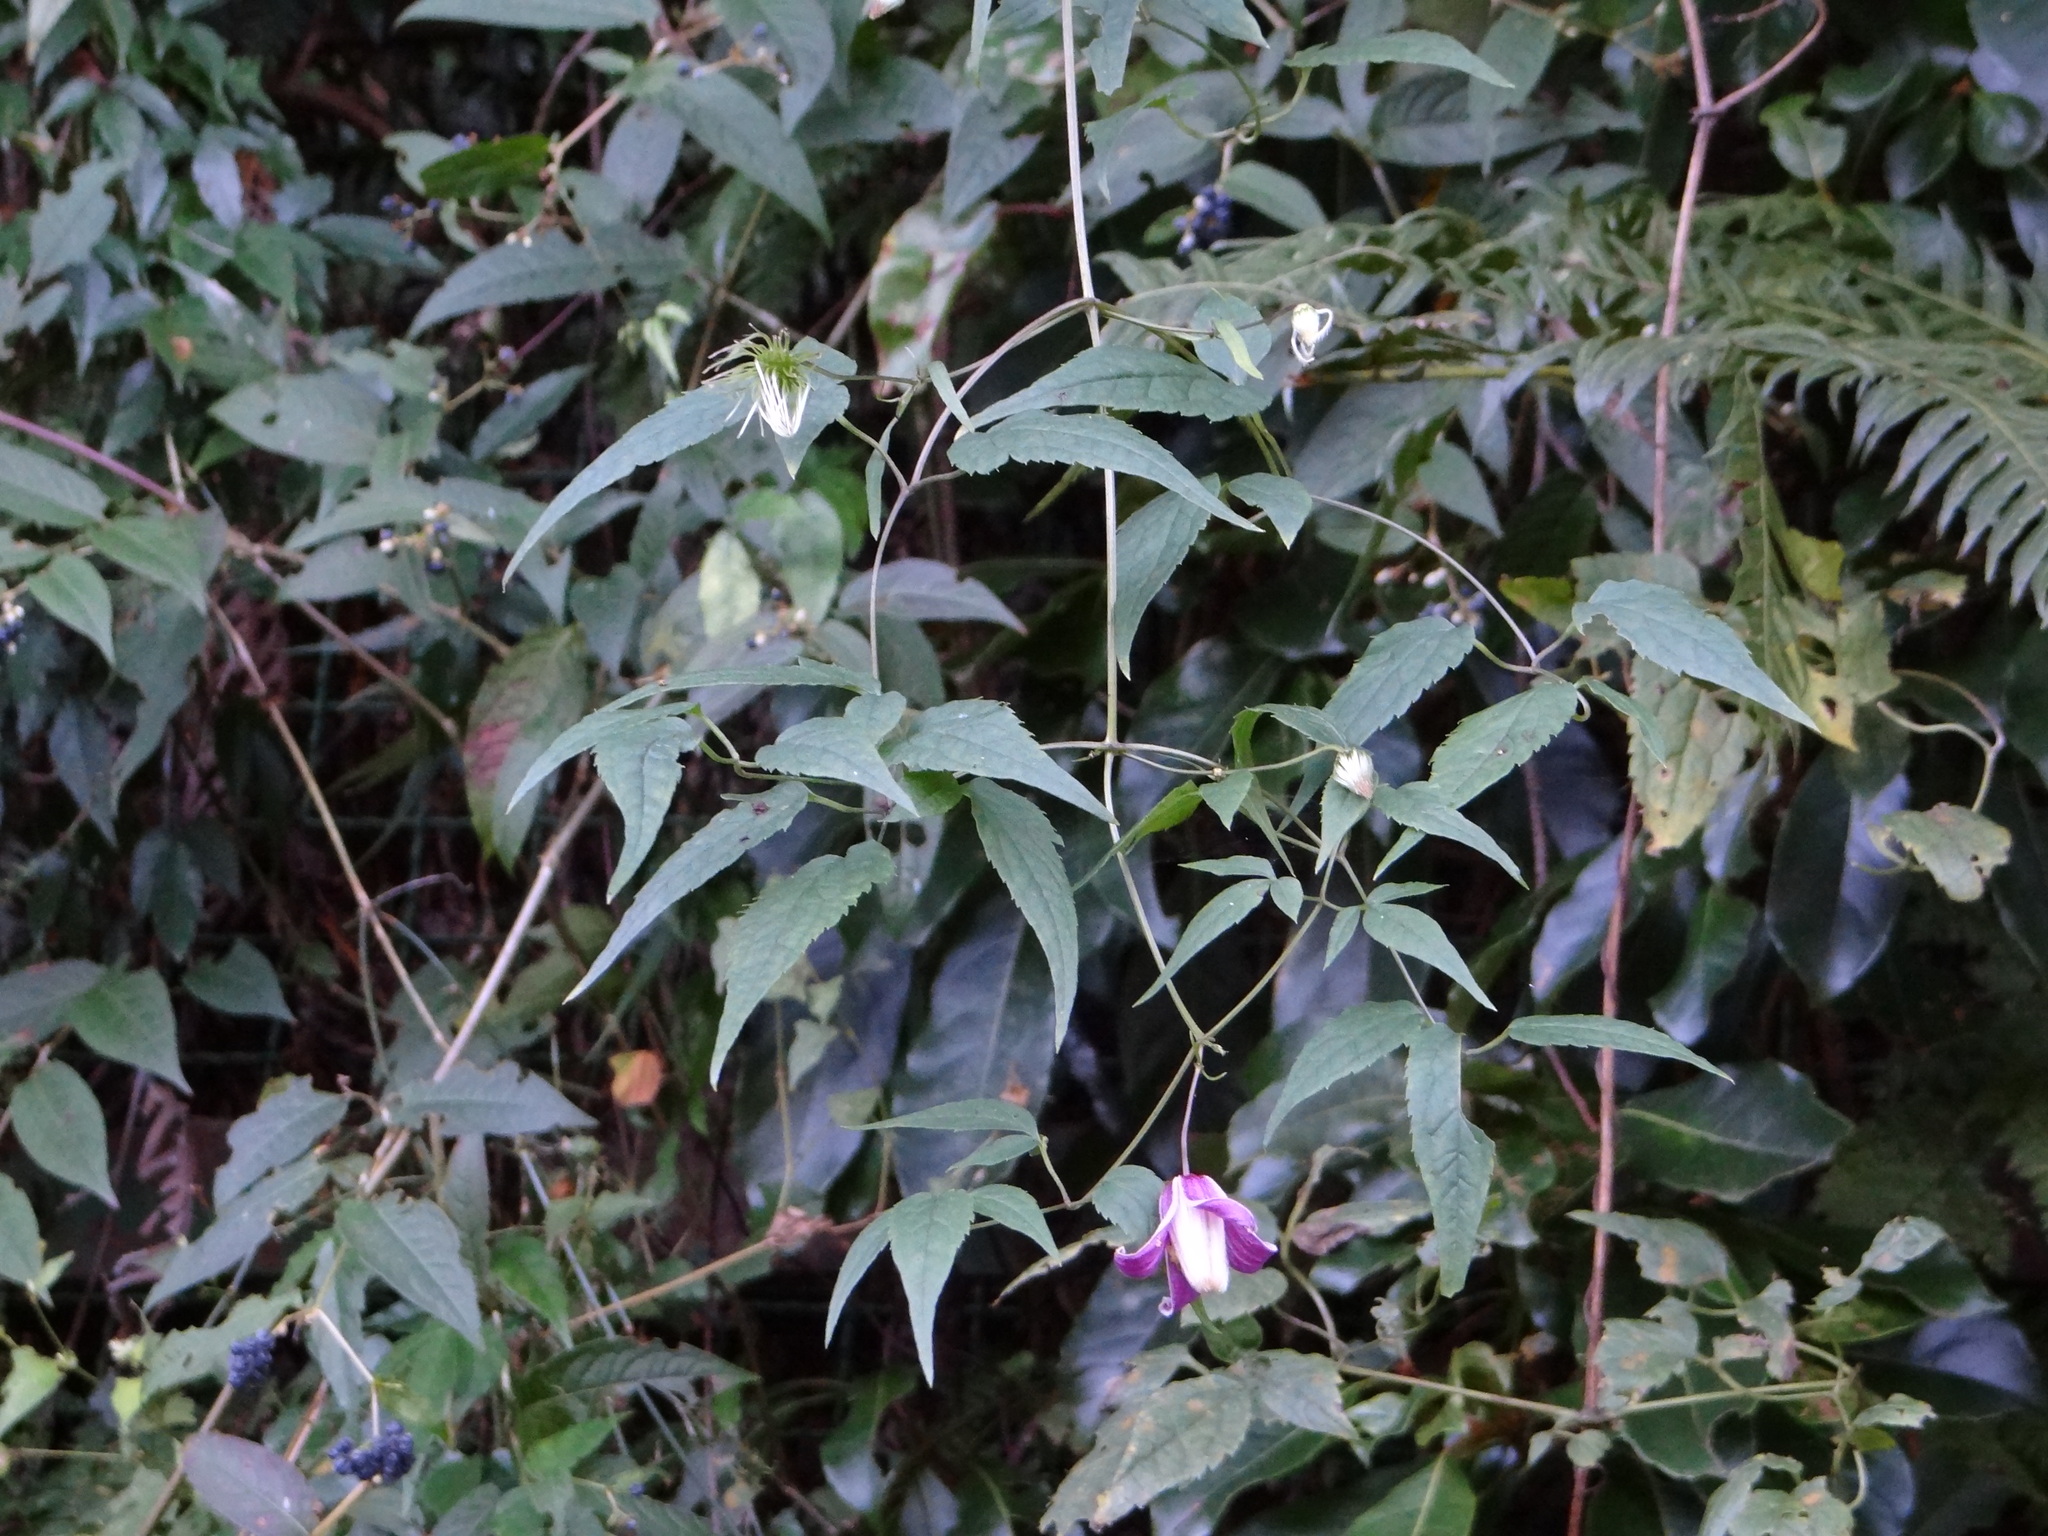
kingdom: Plantae
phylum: Tracheophyta
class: Magnoliopsida
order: Ranunculales
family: Ranunculaceae
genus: Clematis
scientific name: Clematis lasiandra
